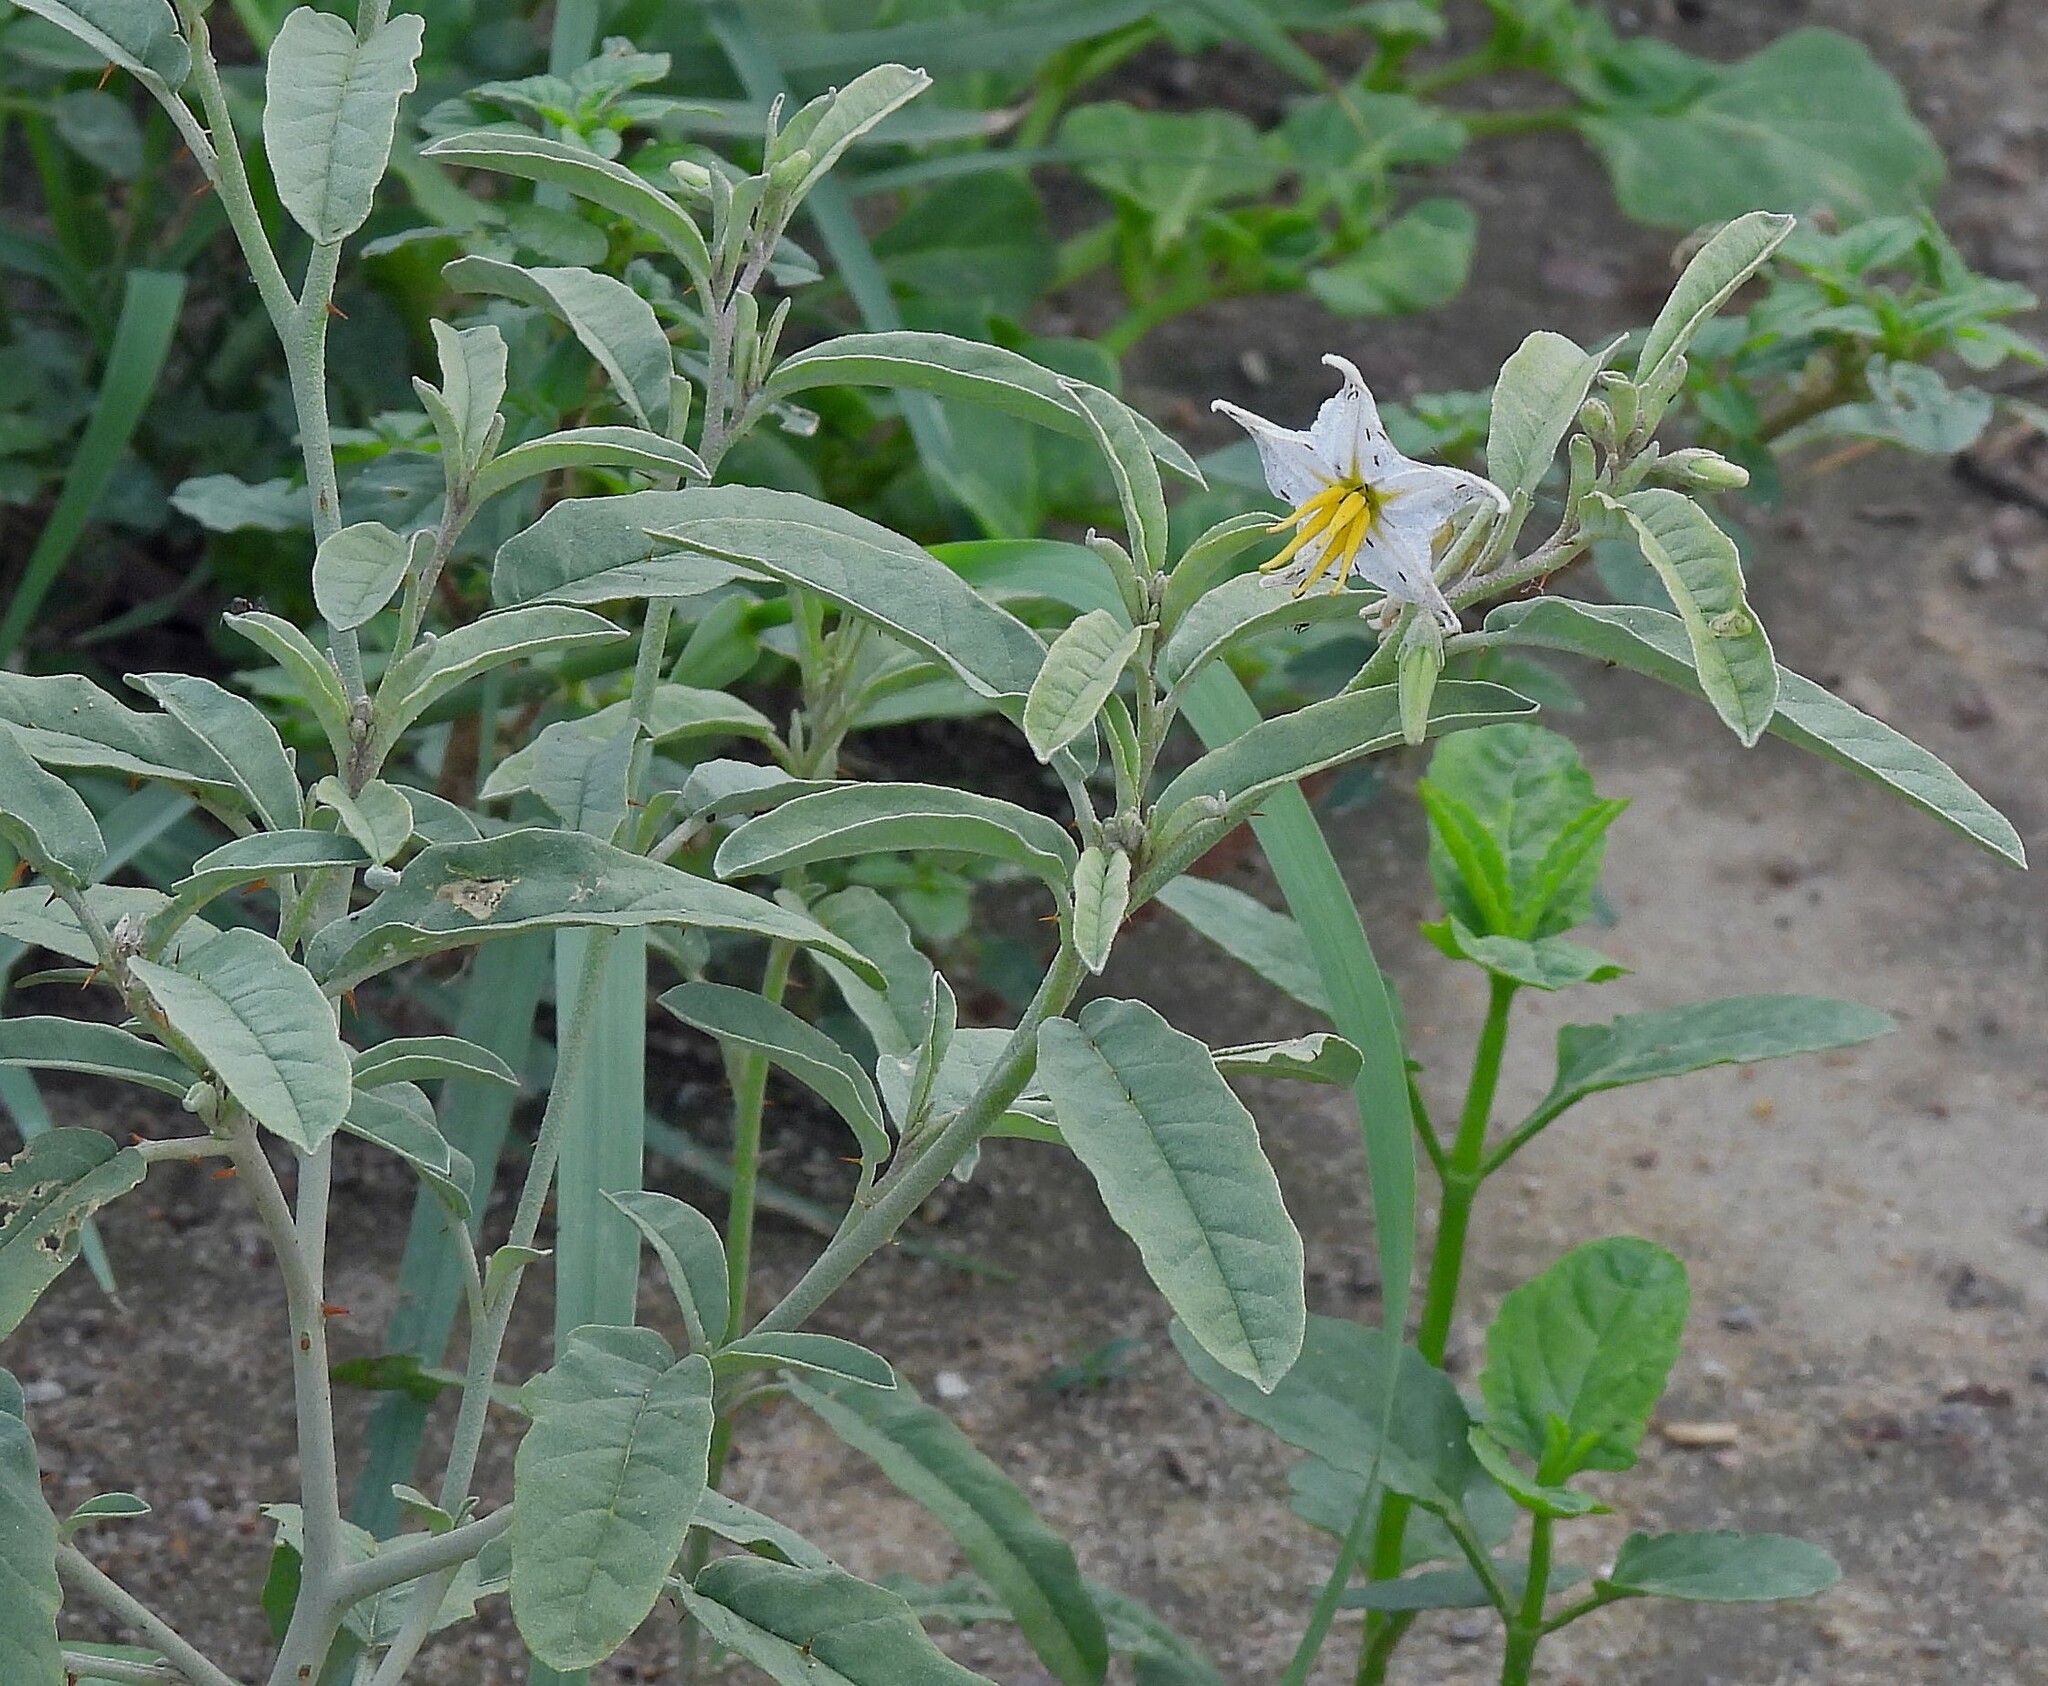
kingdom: Plantae
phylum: Tracheophyta
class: Magnoliopsida
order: Solanales
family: Solanaceae
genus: Solanum
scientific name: Solanum elaeagnifolium
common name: Silverleaf nightshade
